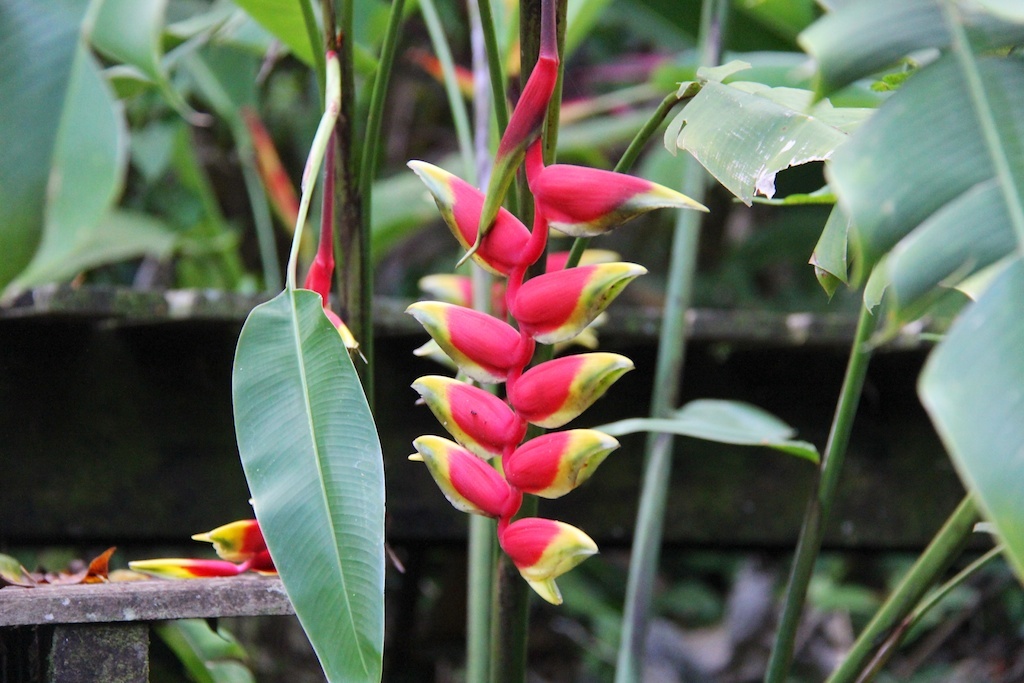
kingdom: Plantae
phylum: Tracheophyta
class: Liliopsida
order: Zingiberales
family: Heliconiaceae
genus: Heliconia
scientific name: Heliconia rostrata
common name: False bird of paradise
